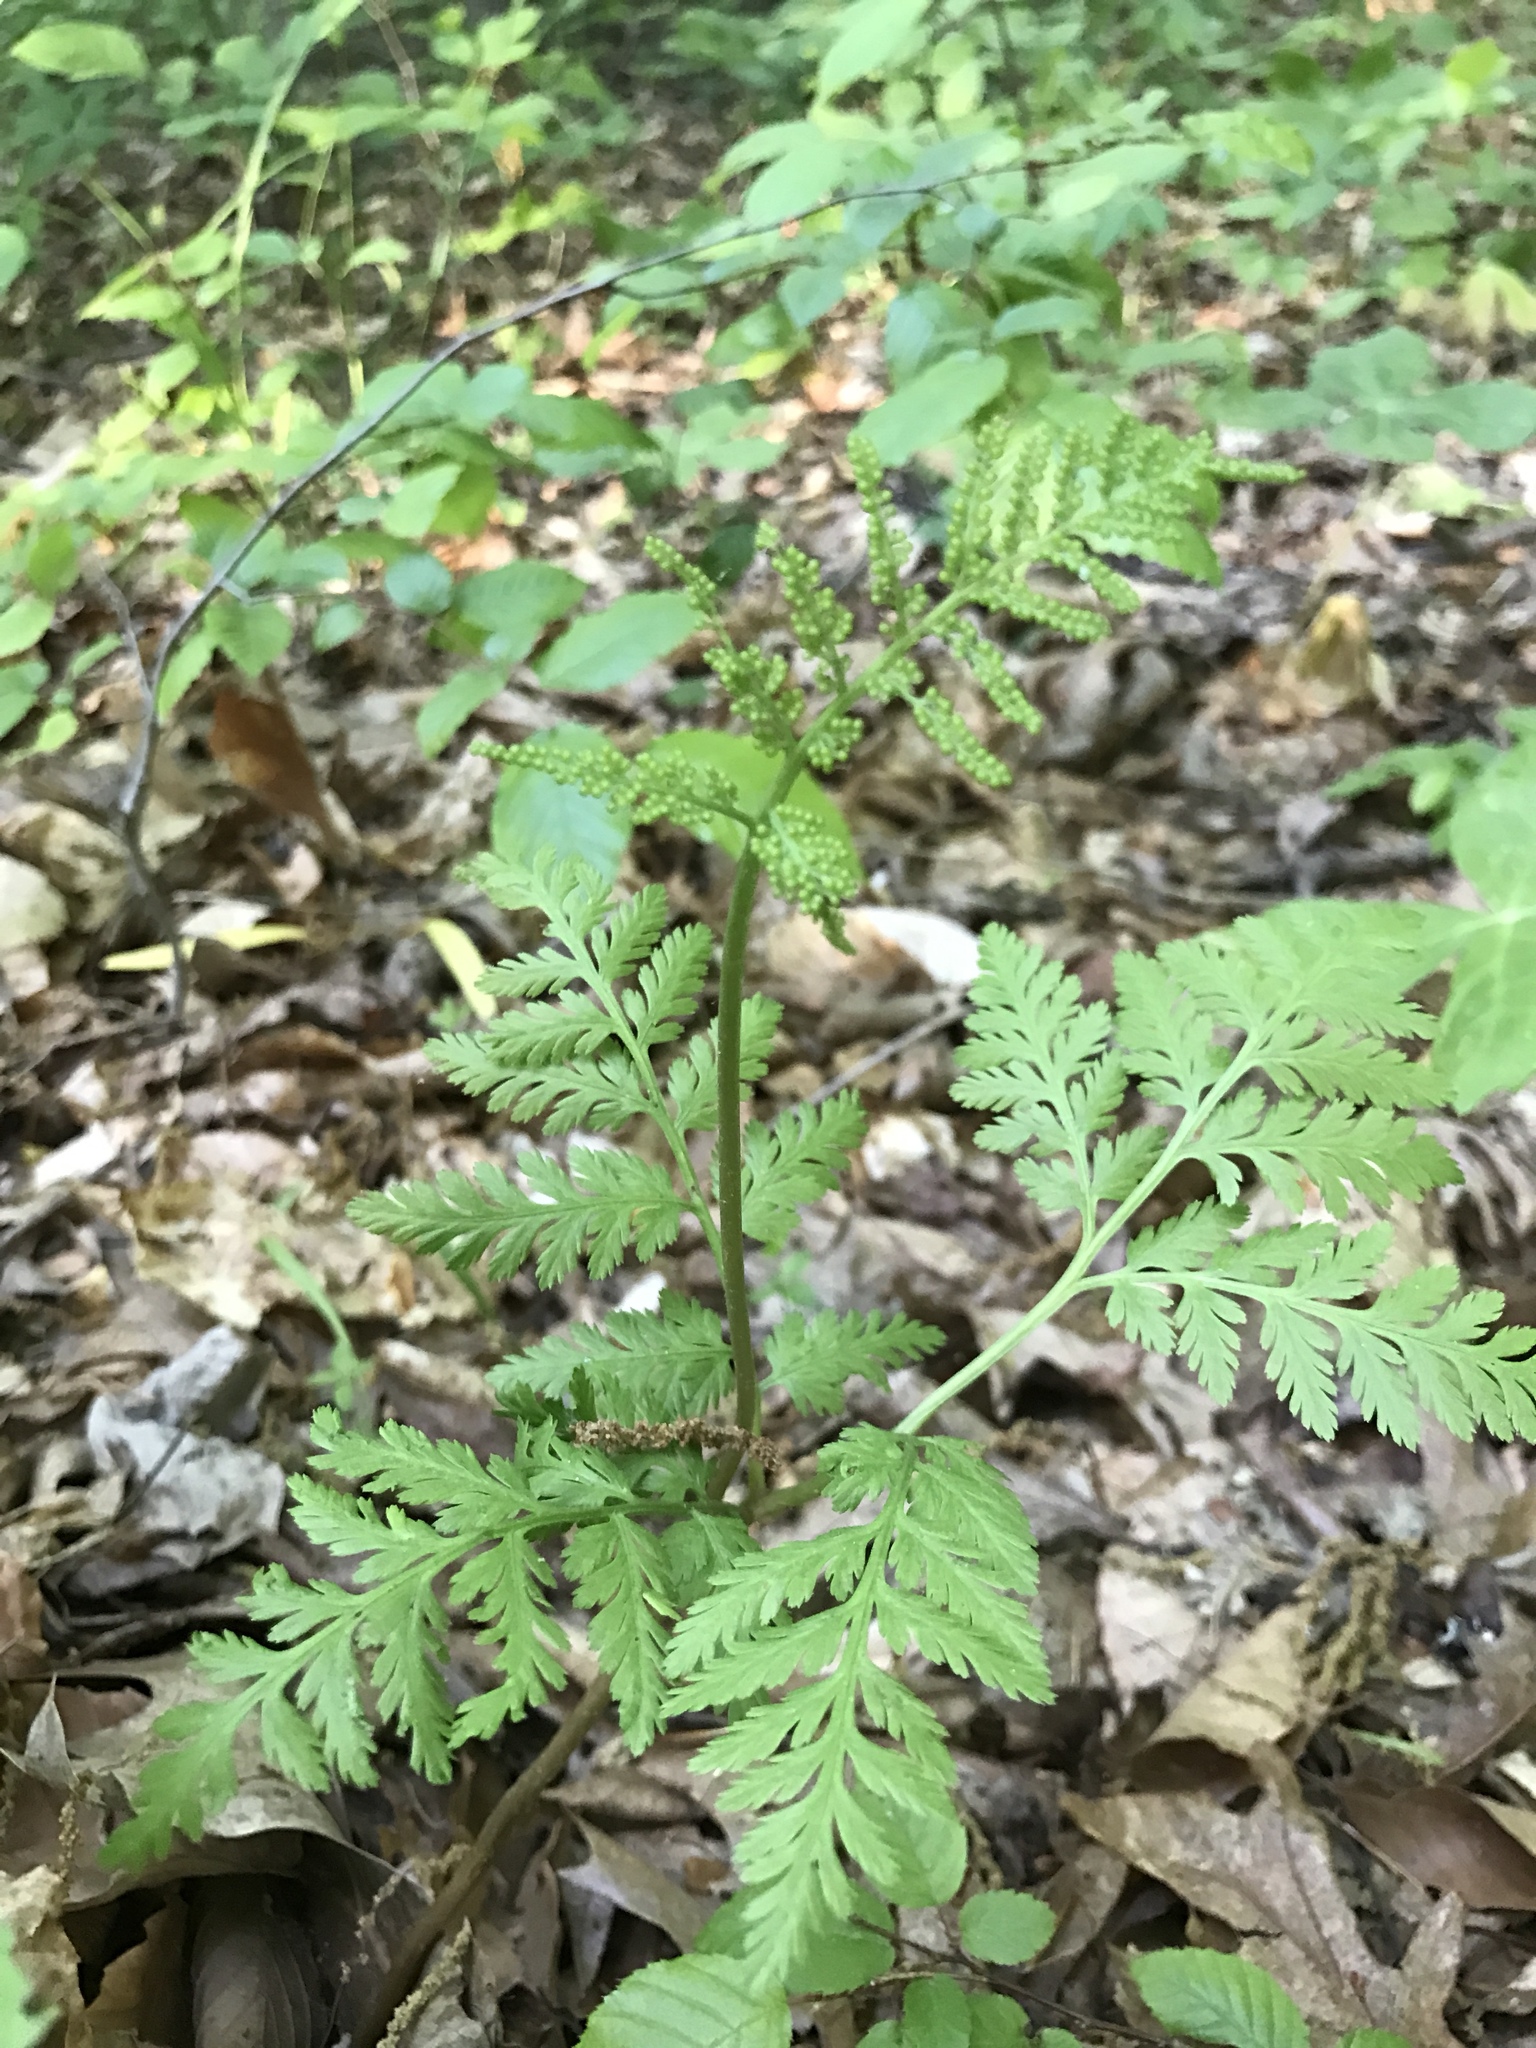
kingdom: Plantae
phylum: Tracheophyta
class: Polypodiopsida
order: Ophioglossales
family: Ophioglossaceae
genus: Botrypus
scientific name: Botrypus virginianus
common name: Common grapefern
